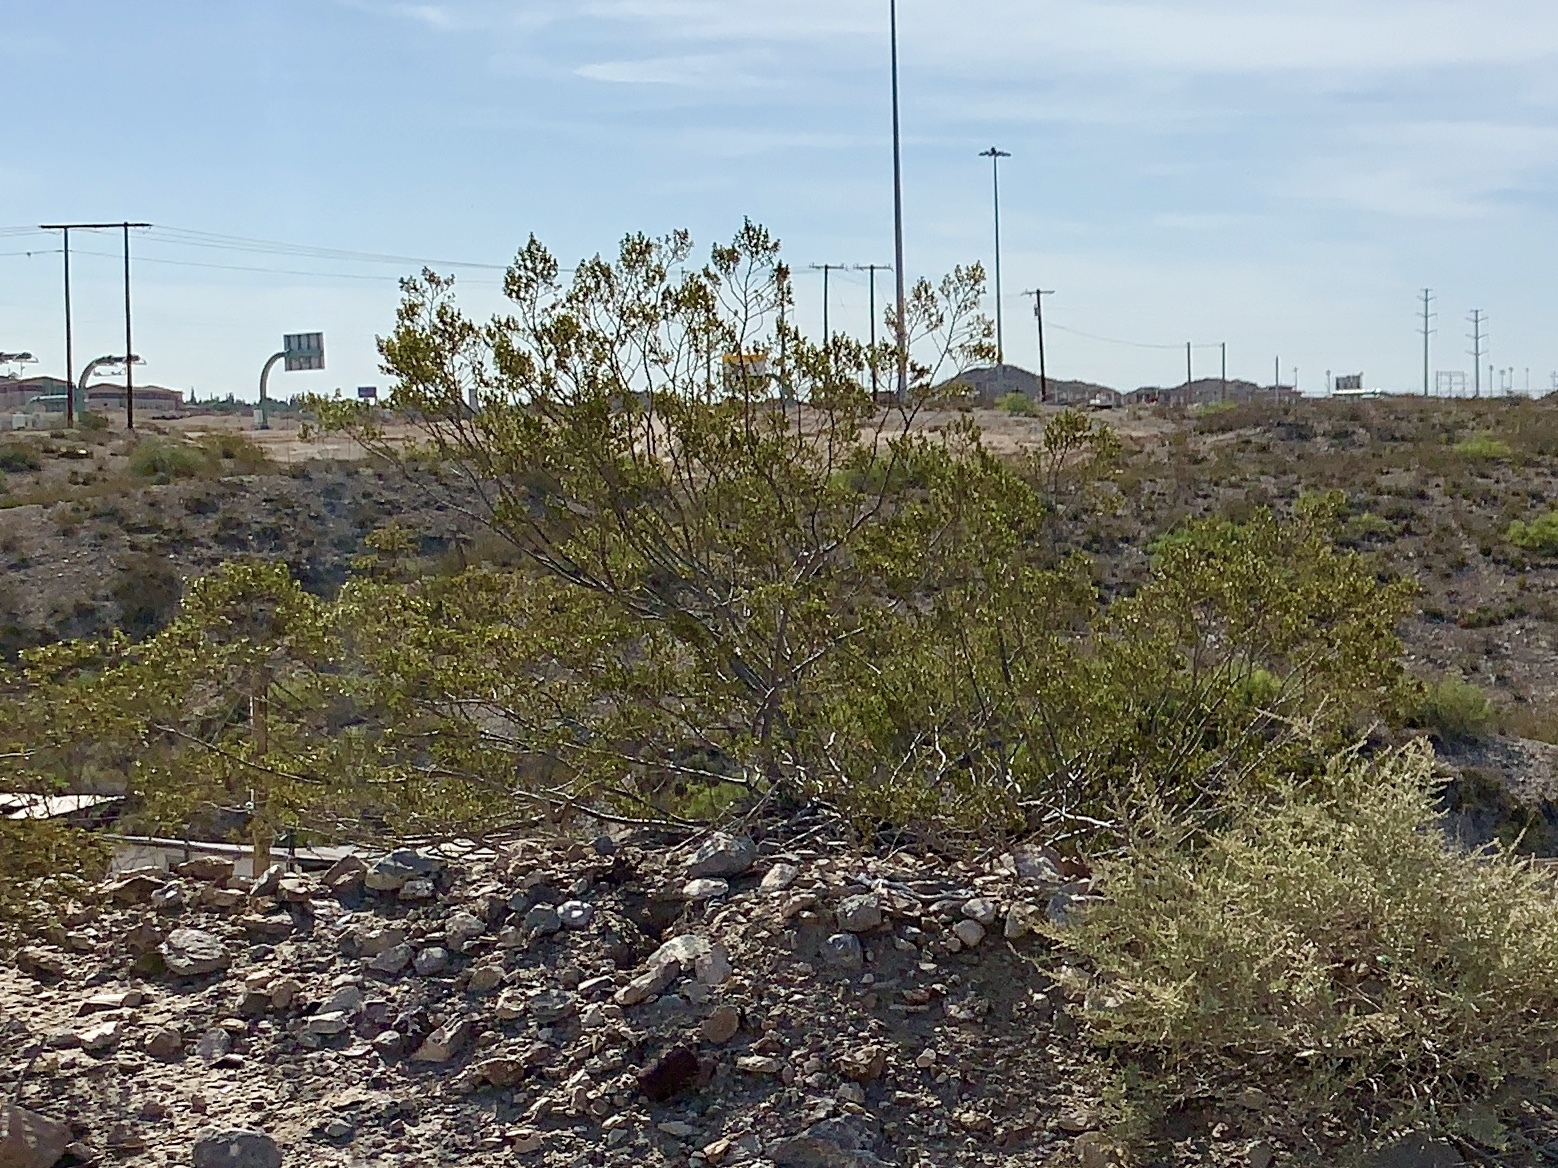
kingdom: Plantae
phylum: Tracheophyta
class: Magnoliopsida
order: Zygophyllales
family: Zygophyllaceae
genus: Larrea
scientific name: Larrea tridentata
